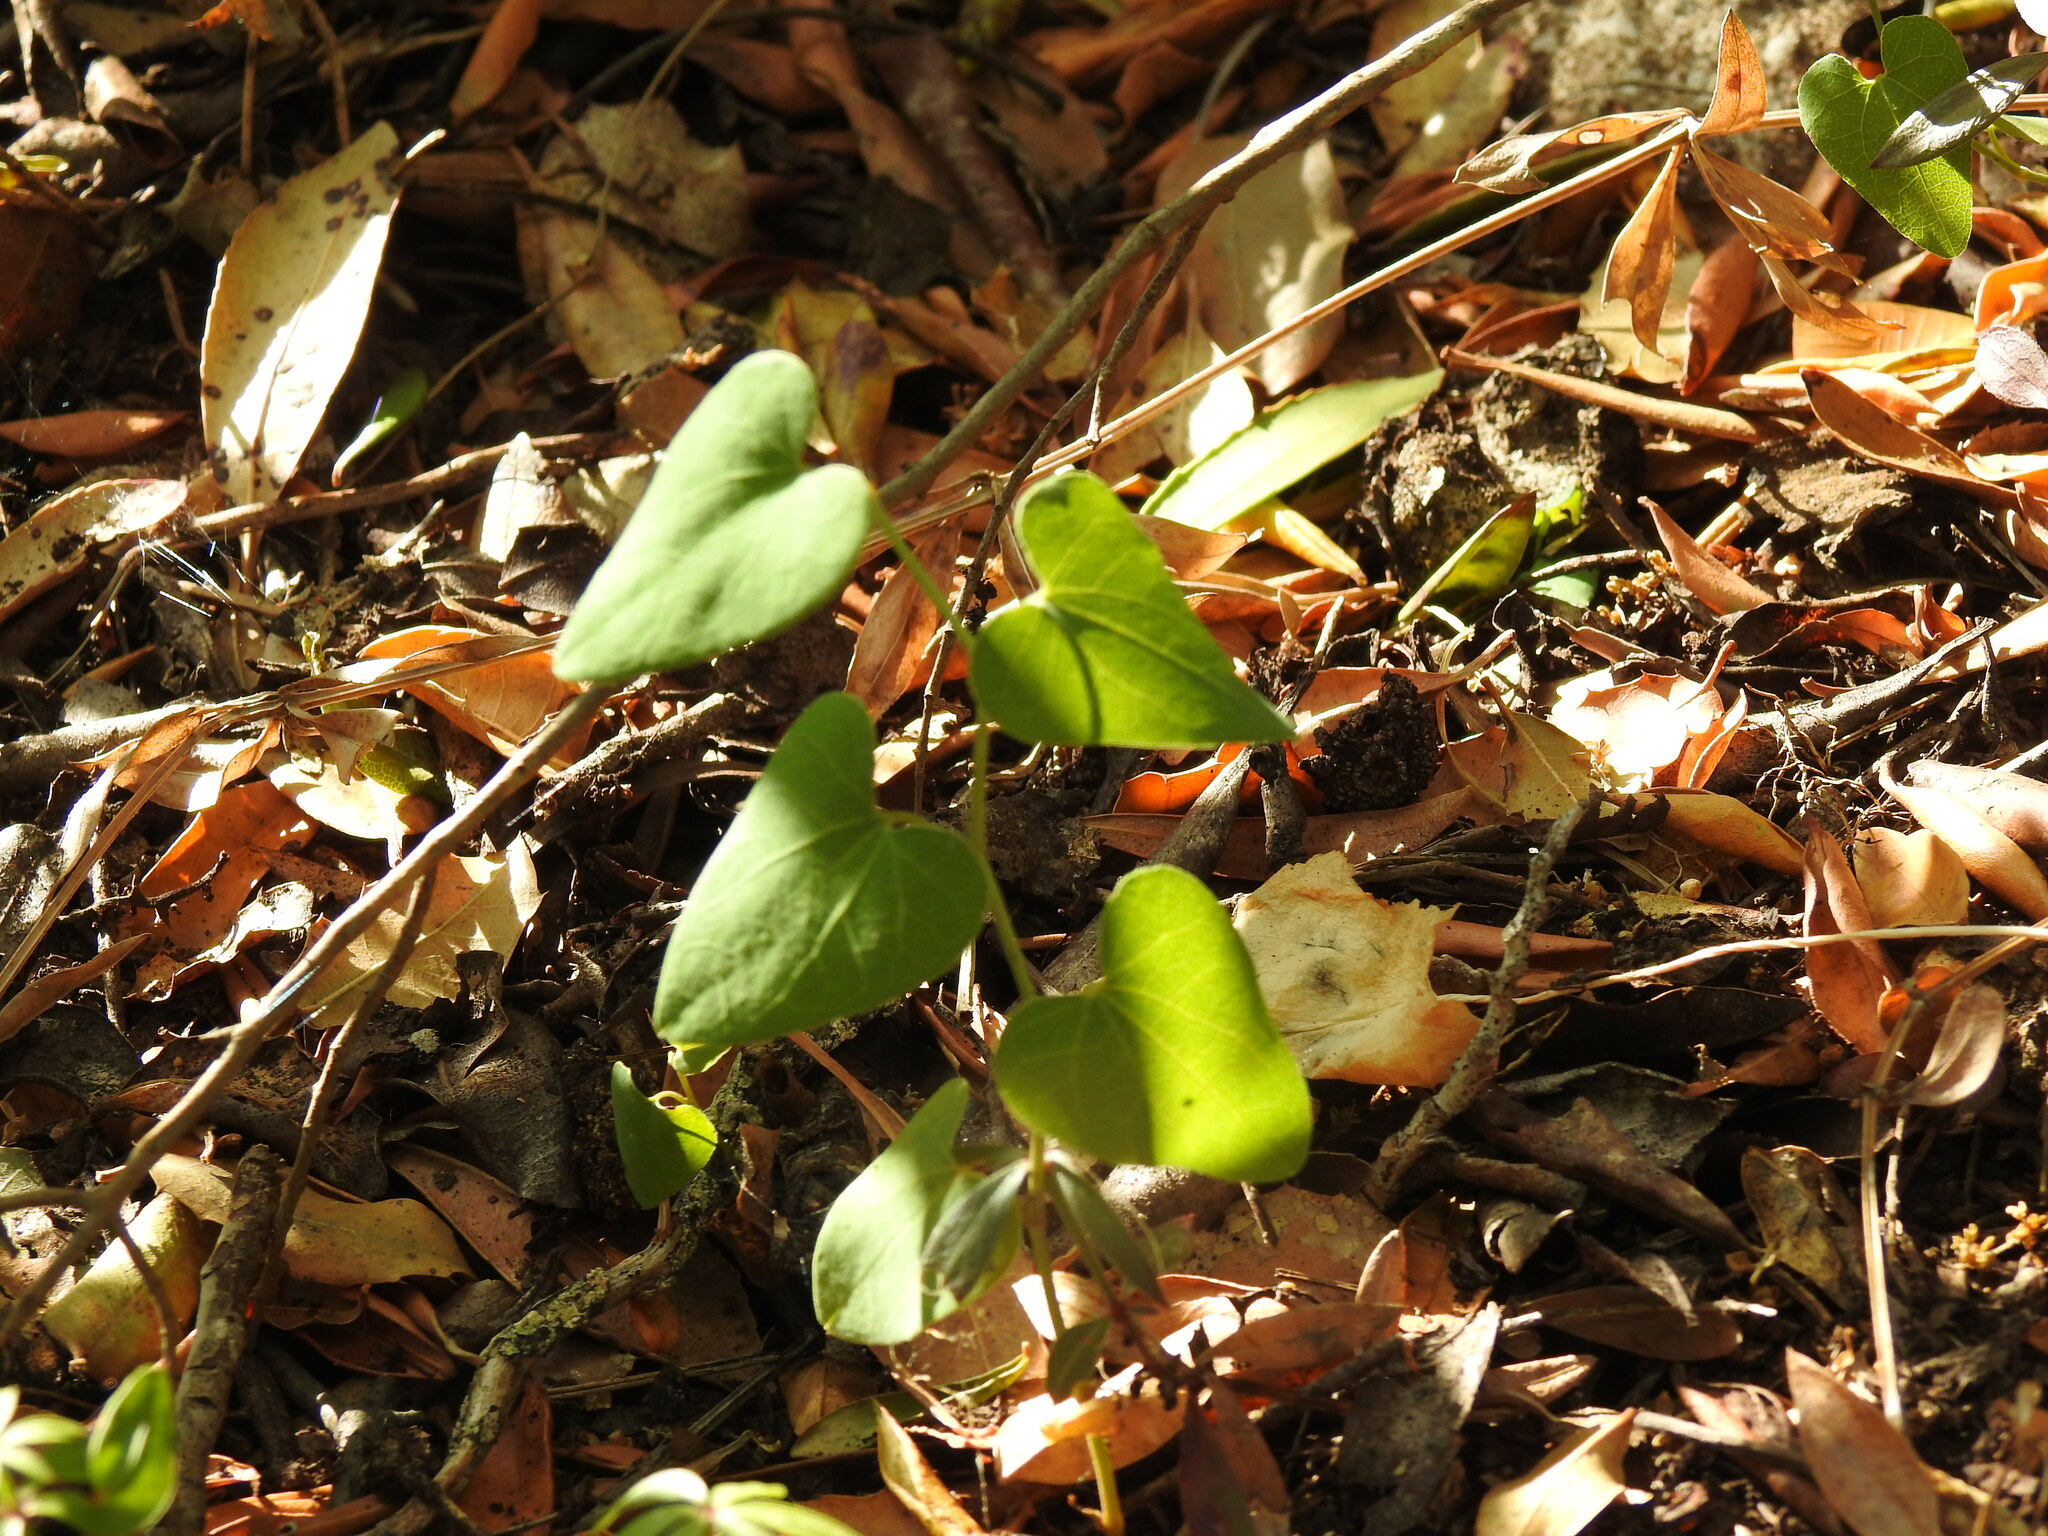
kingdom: Plantae
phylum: Tracheophyta
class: Magnoliopsida
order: Piperales
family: Aristolochiaceae
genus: Aristolochia
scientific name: Aristolochia baetica
